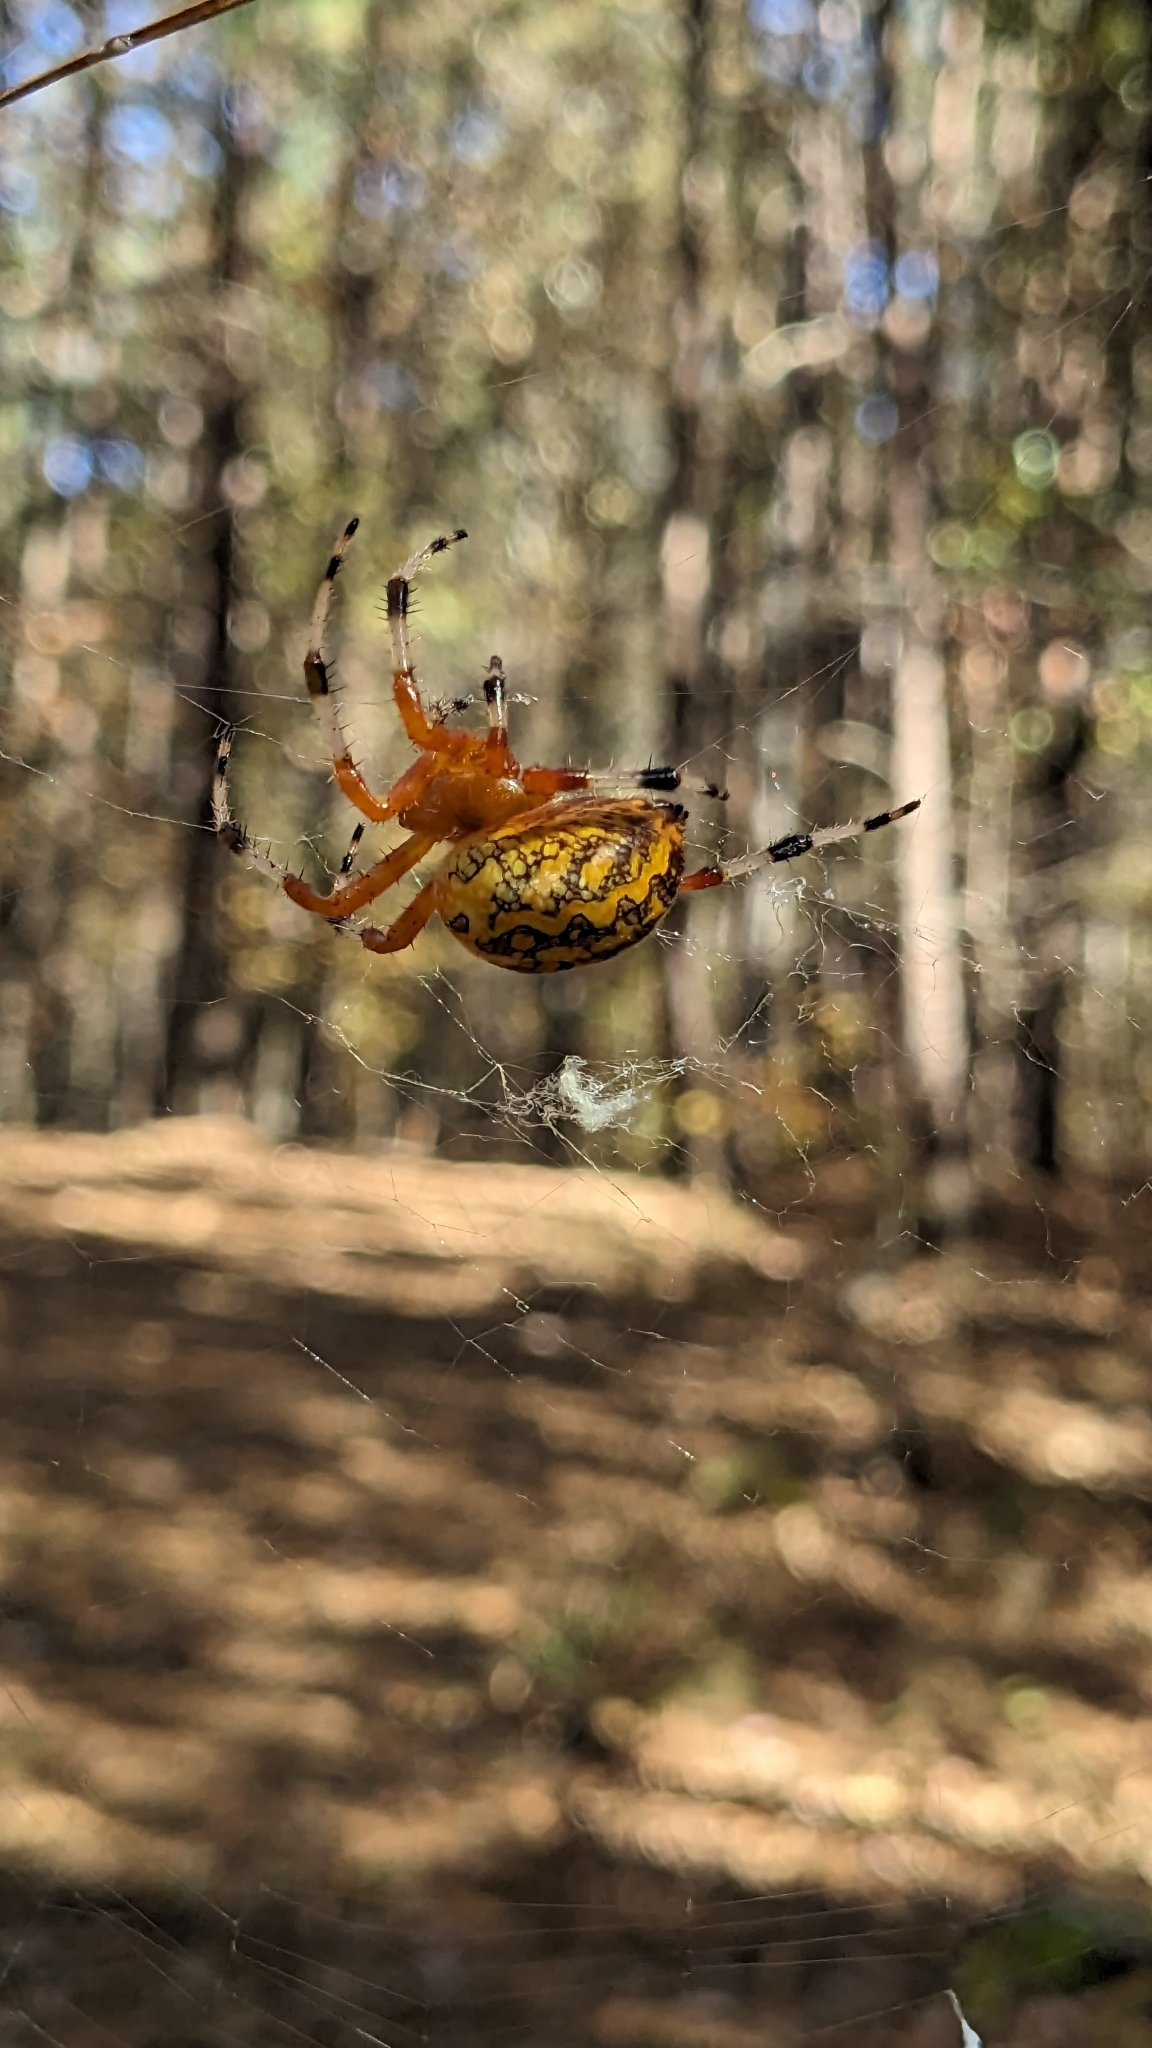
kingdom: Animalia
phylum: Arthropoda
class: Arachnida
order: Araneae
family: Araneidae
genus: Araneus
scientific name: Araneus marmoreus
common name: Marbled orbweaver
